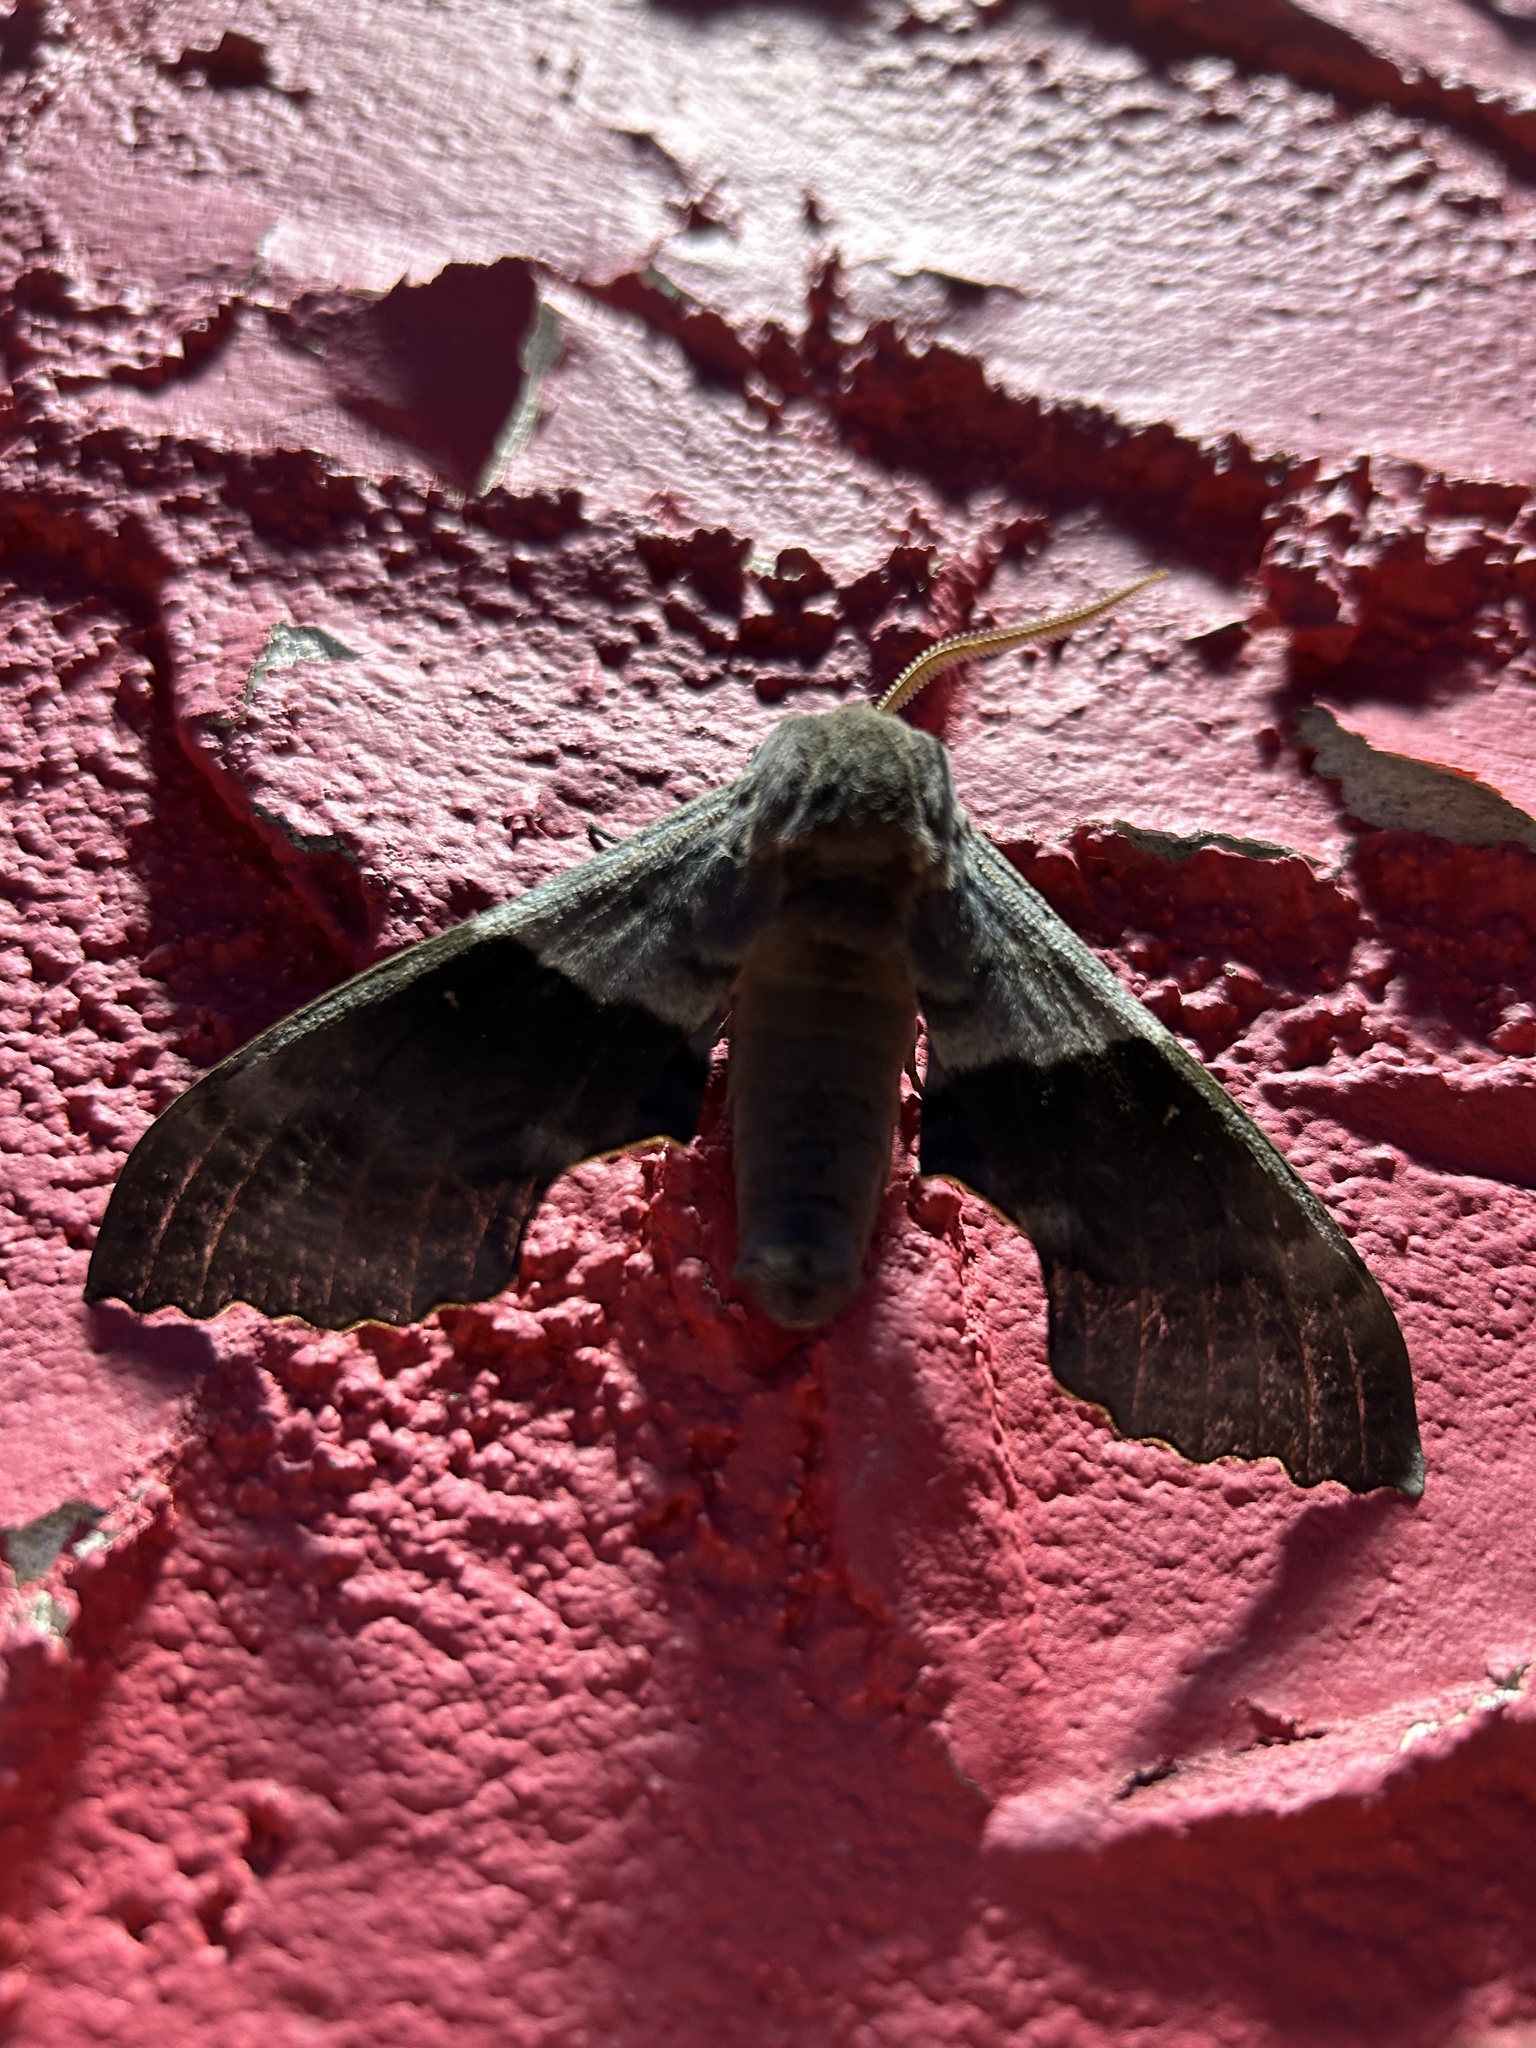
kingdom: Animalia
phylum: Arthropoda
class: Insecta
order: Lepidoptera
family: Sphingidae
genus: Pachysphinx
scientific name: Pachysphinx modesta
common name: Big poplar sphinx
